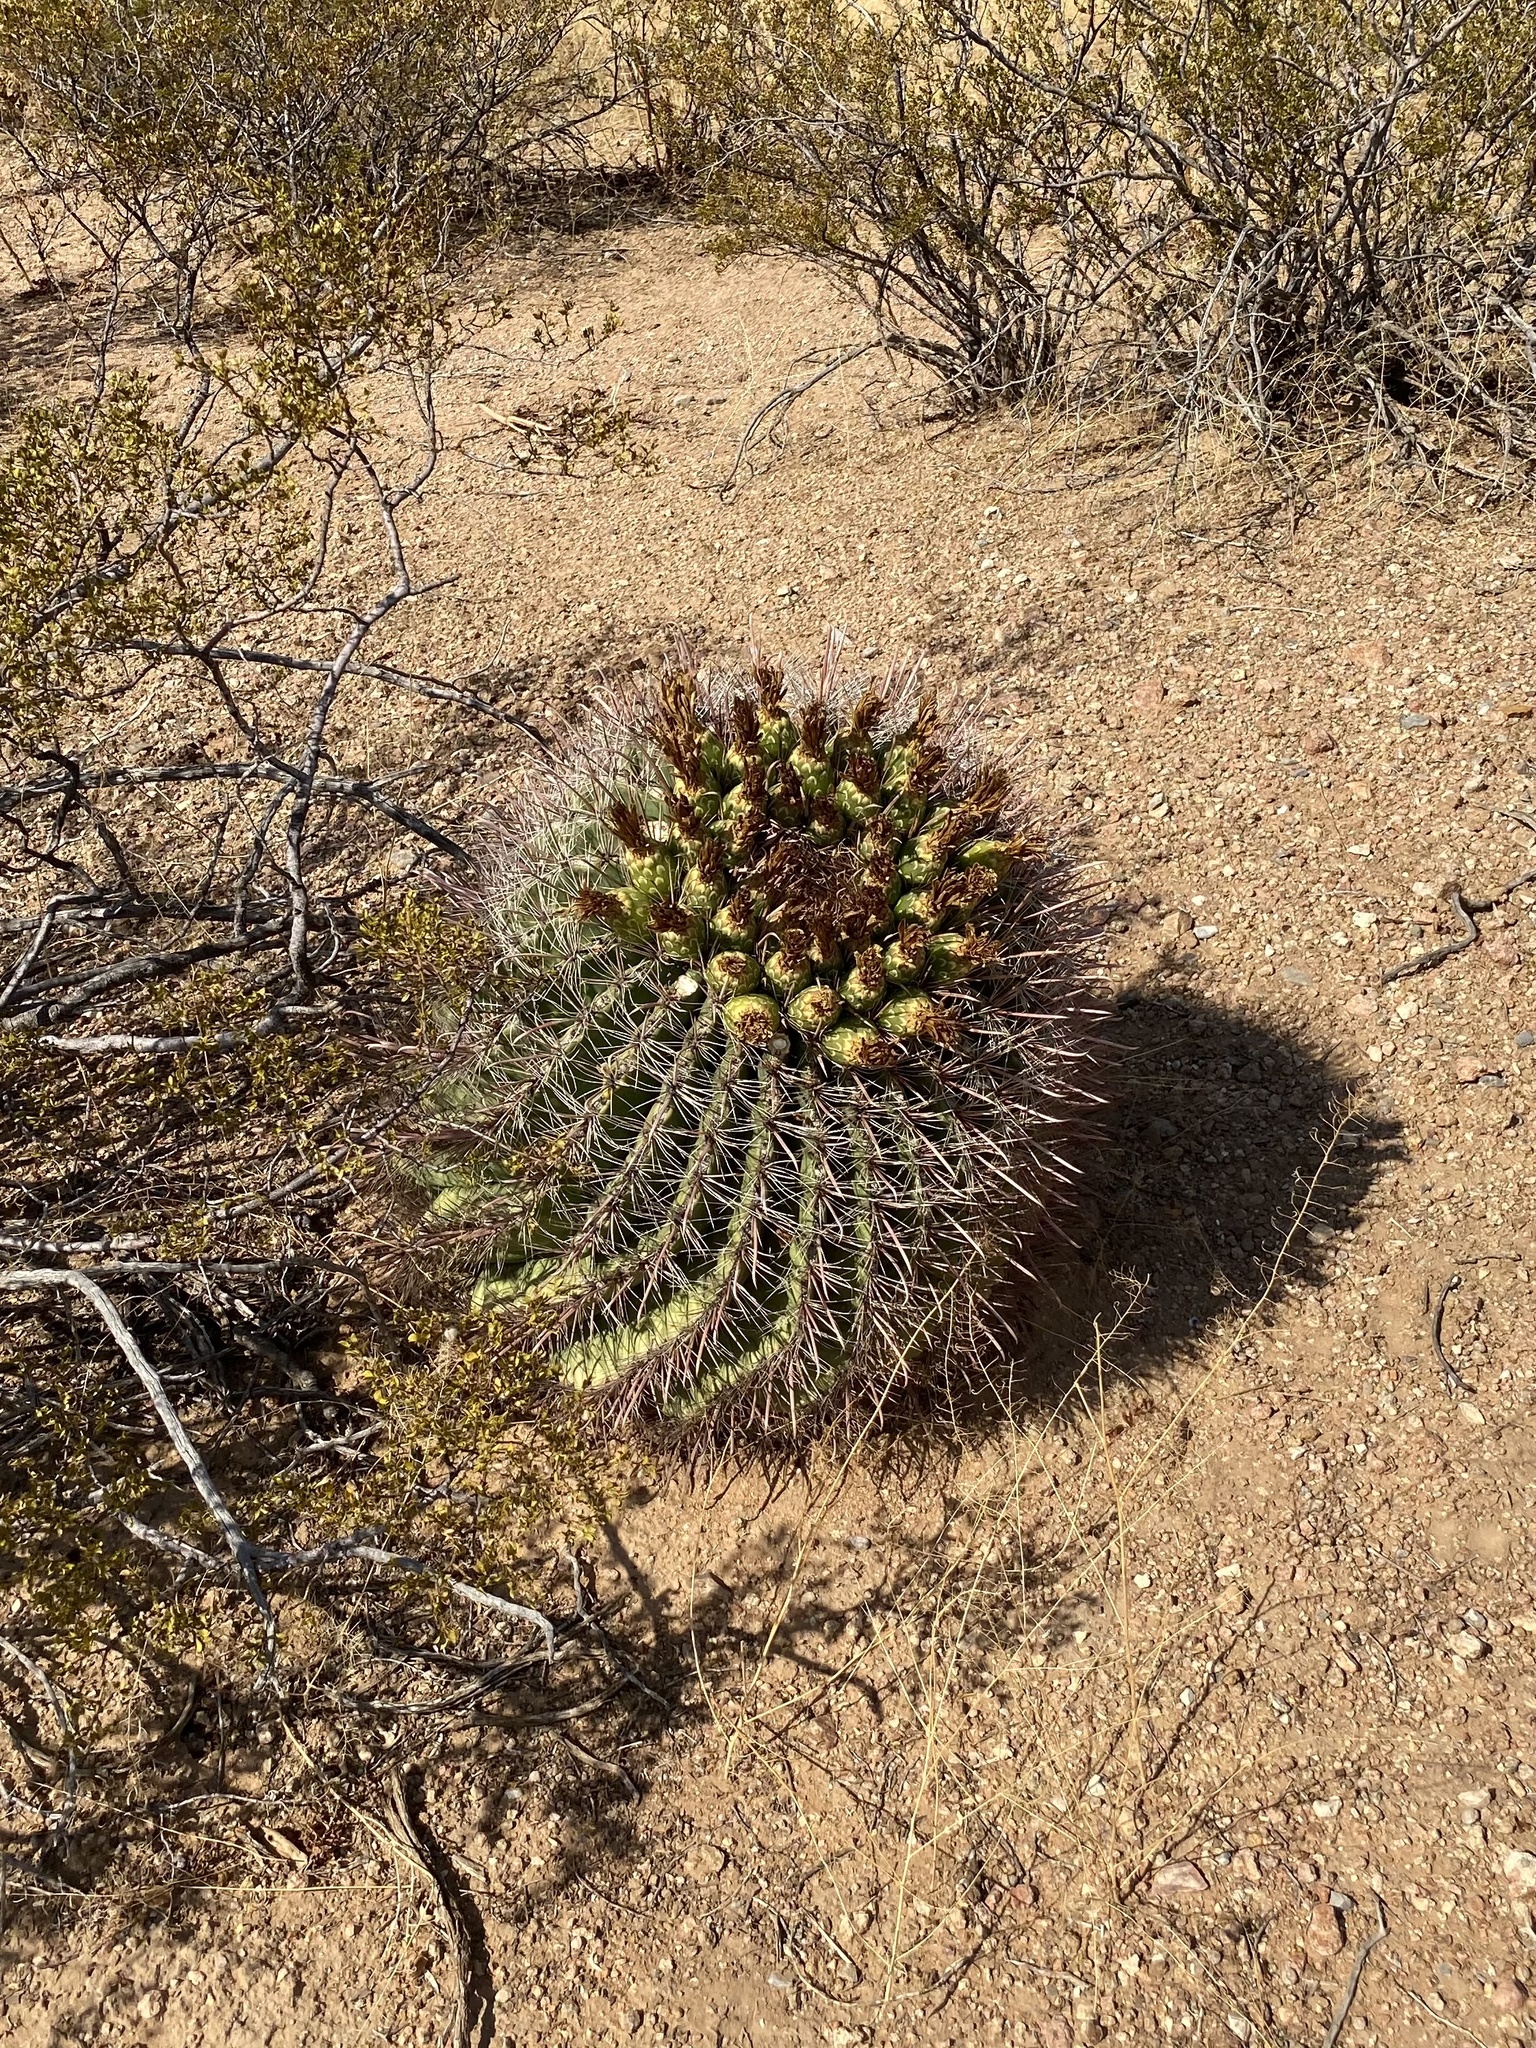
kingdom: Plantae
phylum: Tracheophyta
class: Magnoliopsida
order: Caryophyllales
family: Cactaceae
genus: Ferocactus
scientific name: Ferocactus wislizeni
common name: Candy barrel cactus
